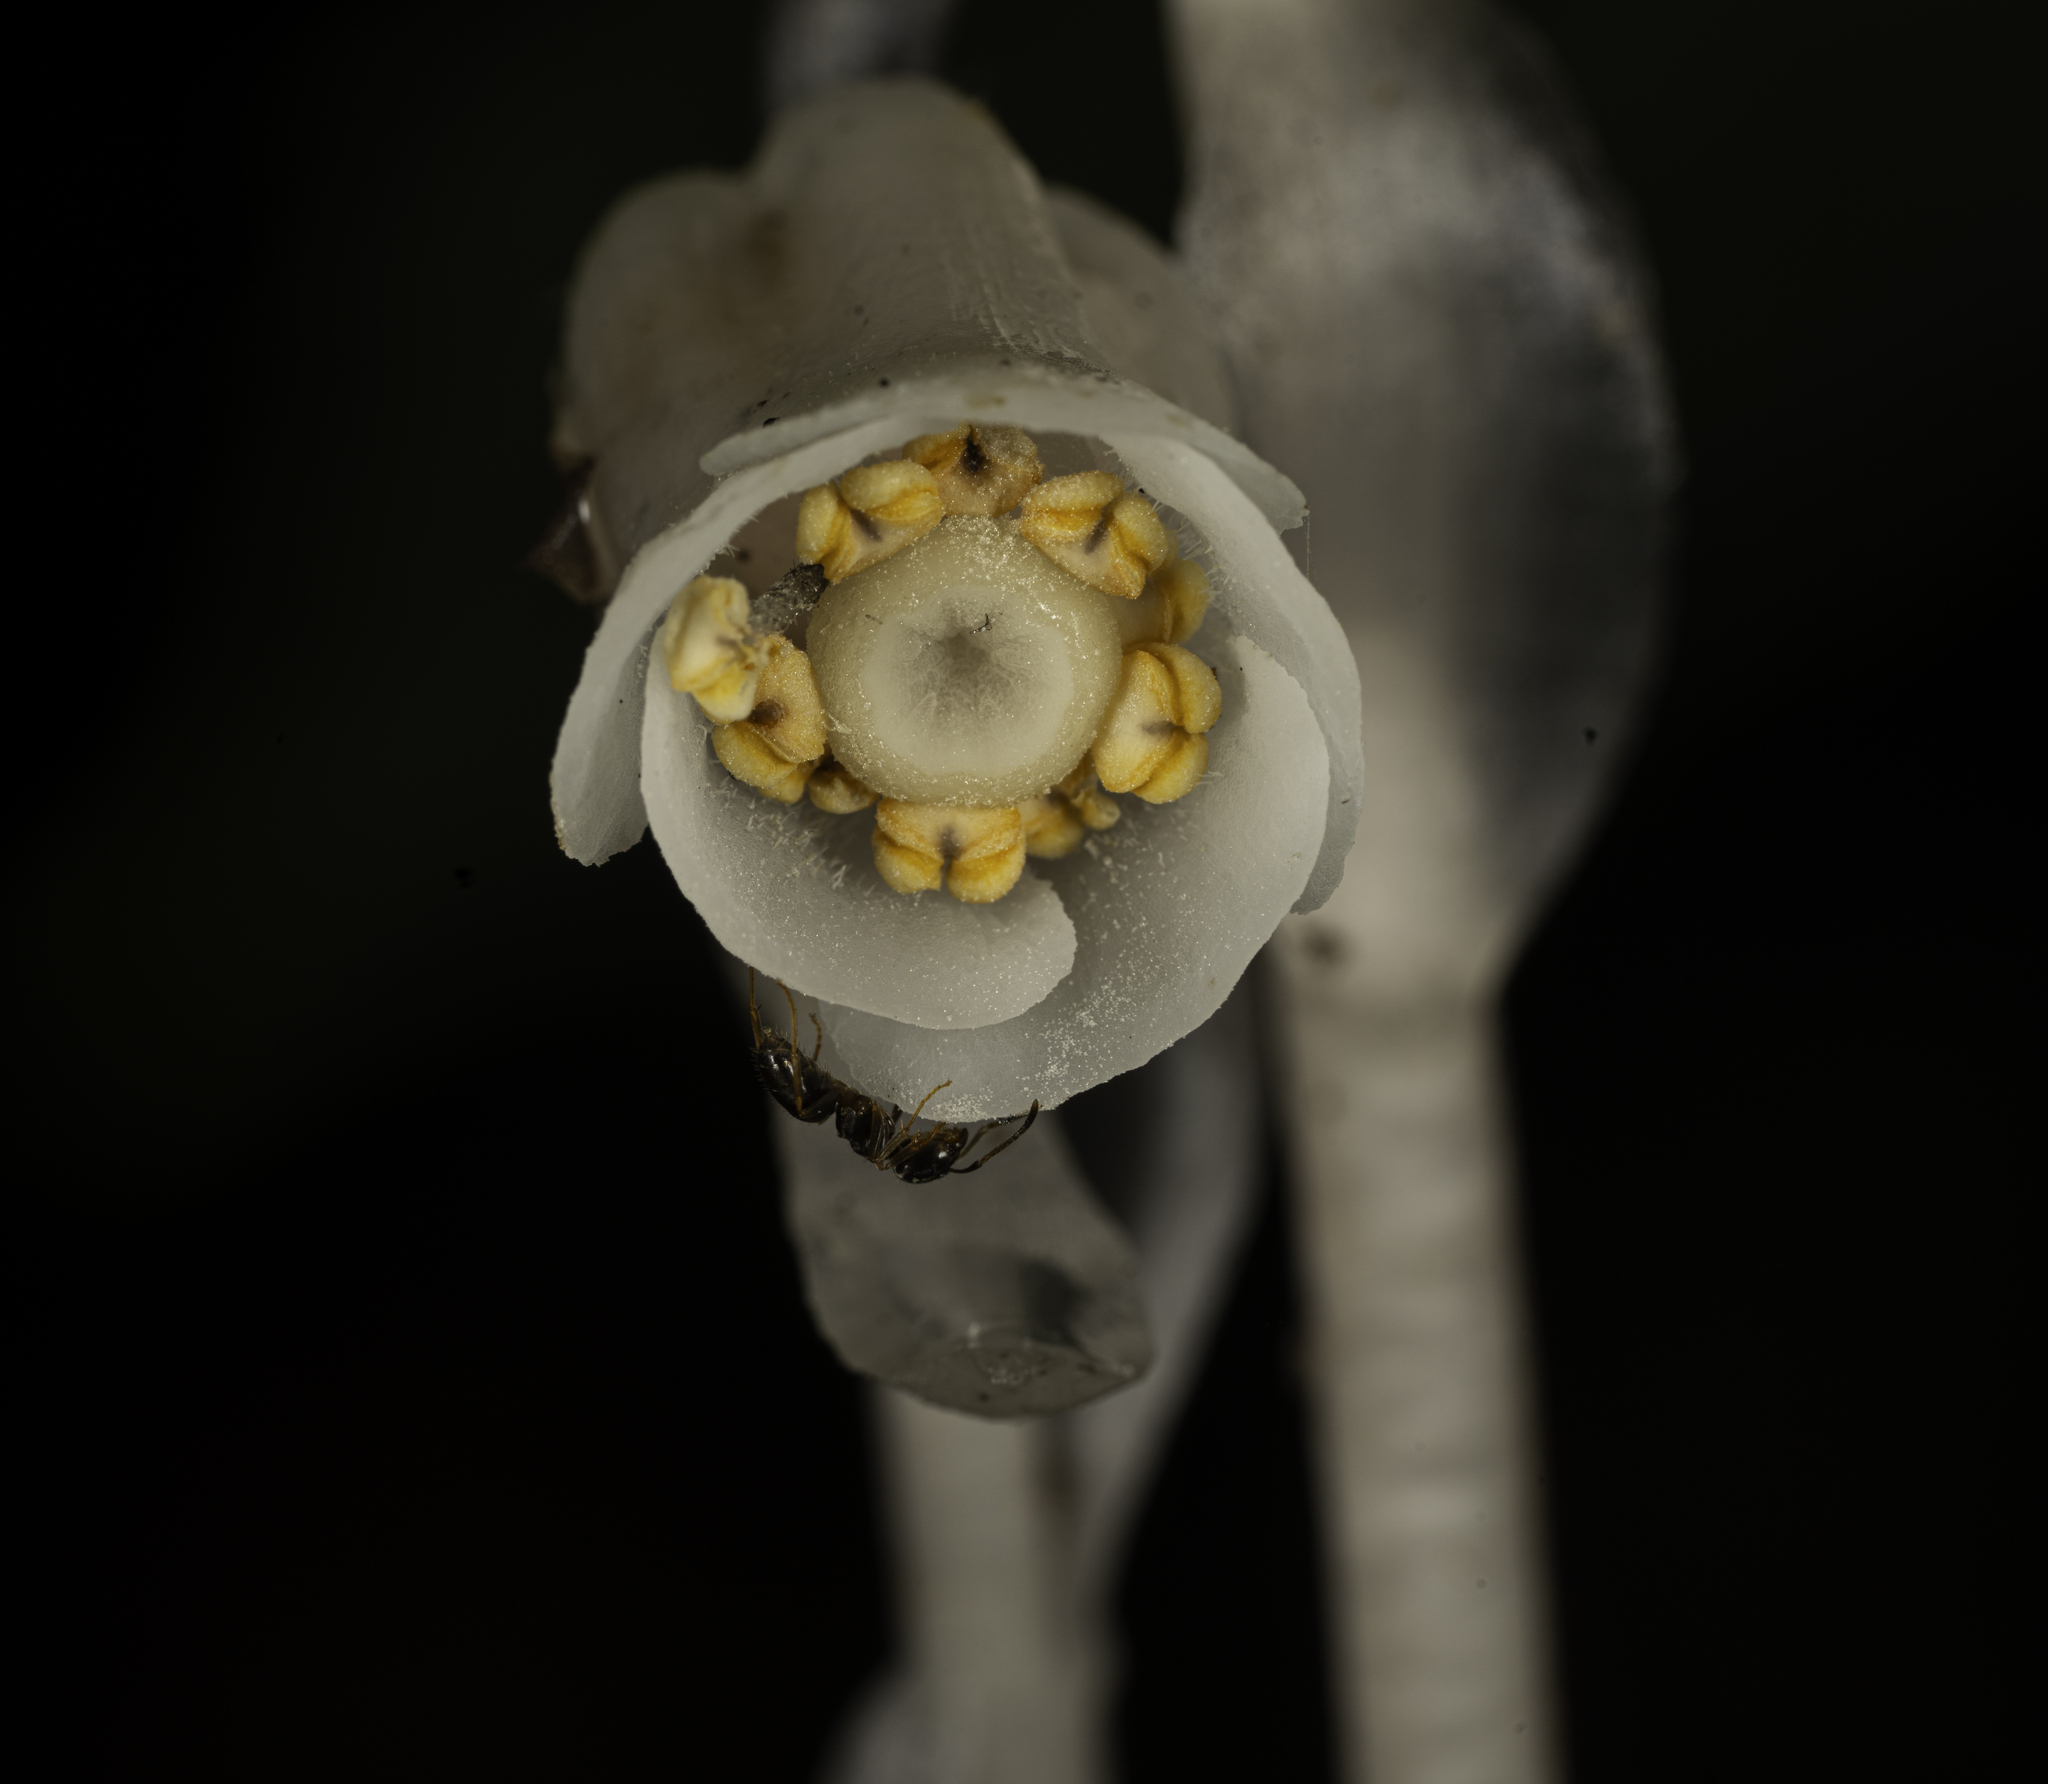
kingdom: Plantae
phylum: Tracheophyta
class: Magnoliopsida
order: Ericales
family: Ericaceae
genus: Monotropa
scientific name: Monotropa uniflora
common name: Convulsion root
